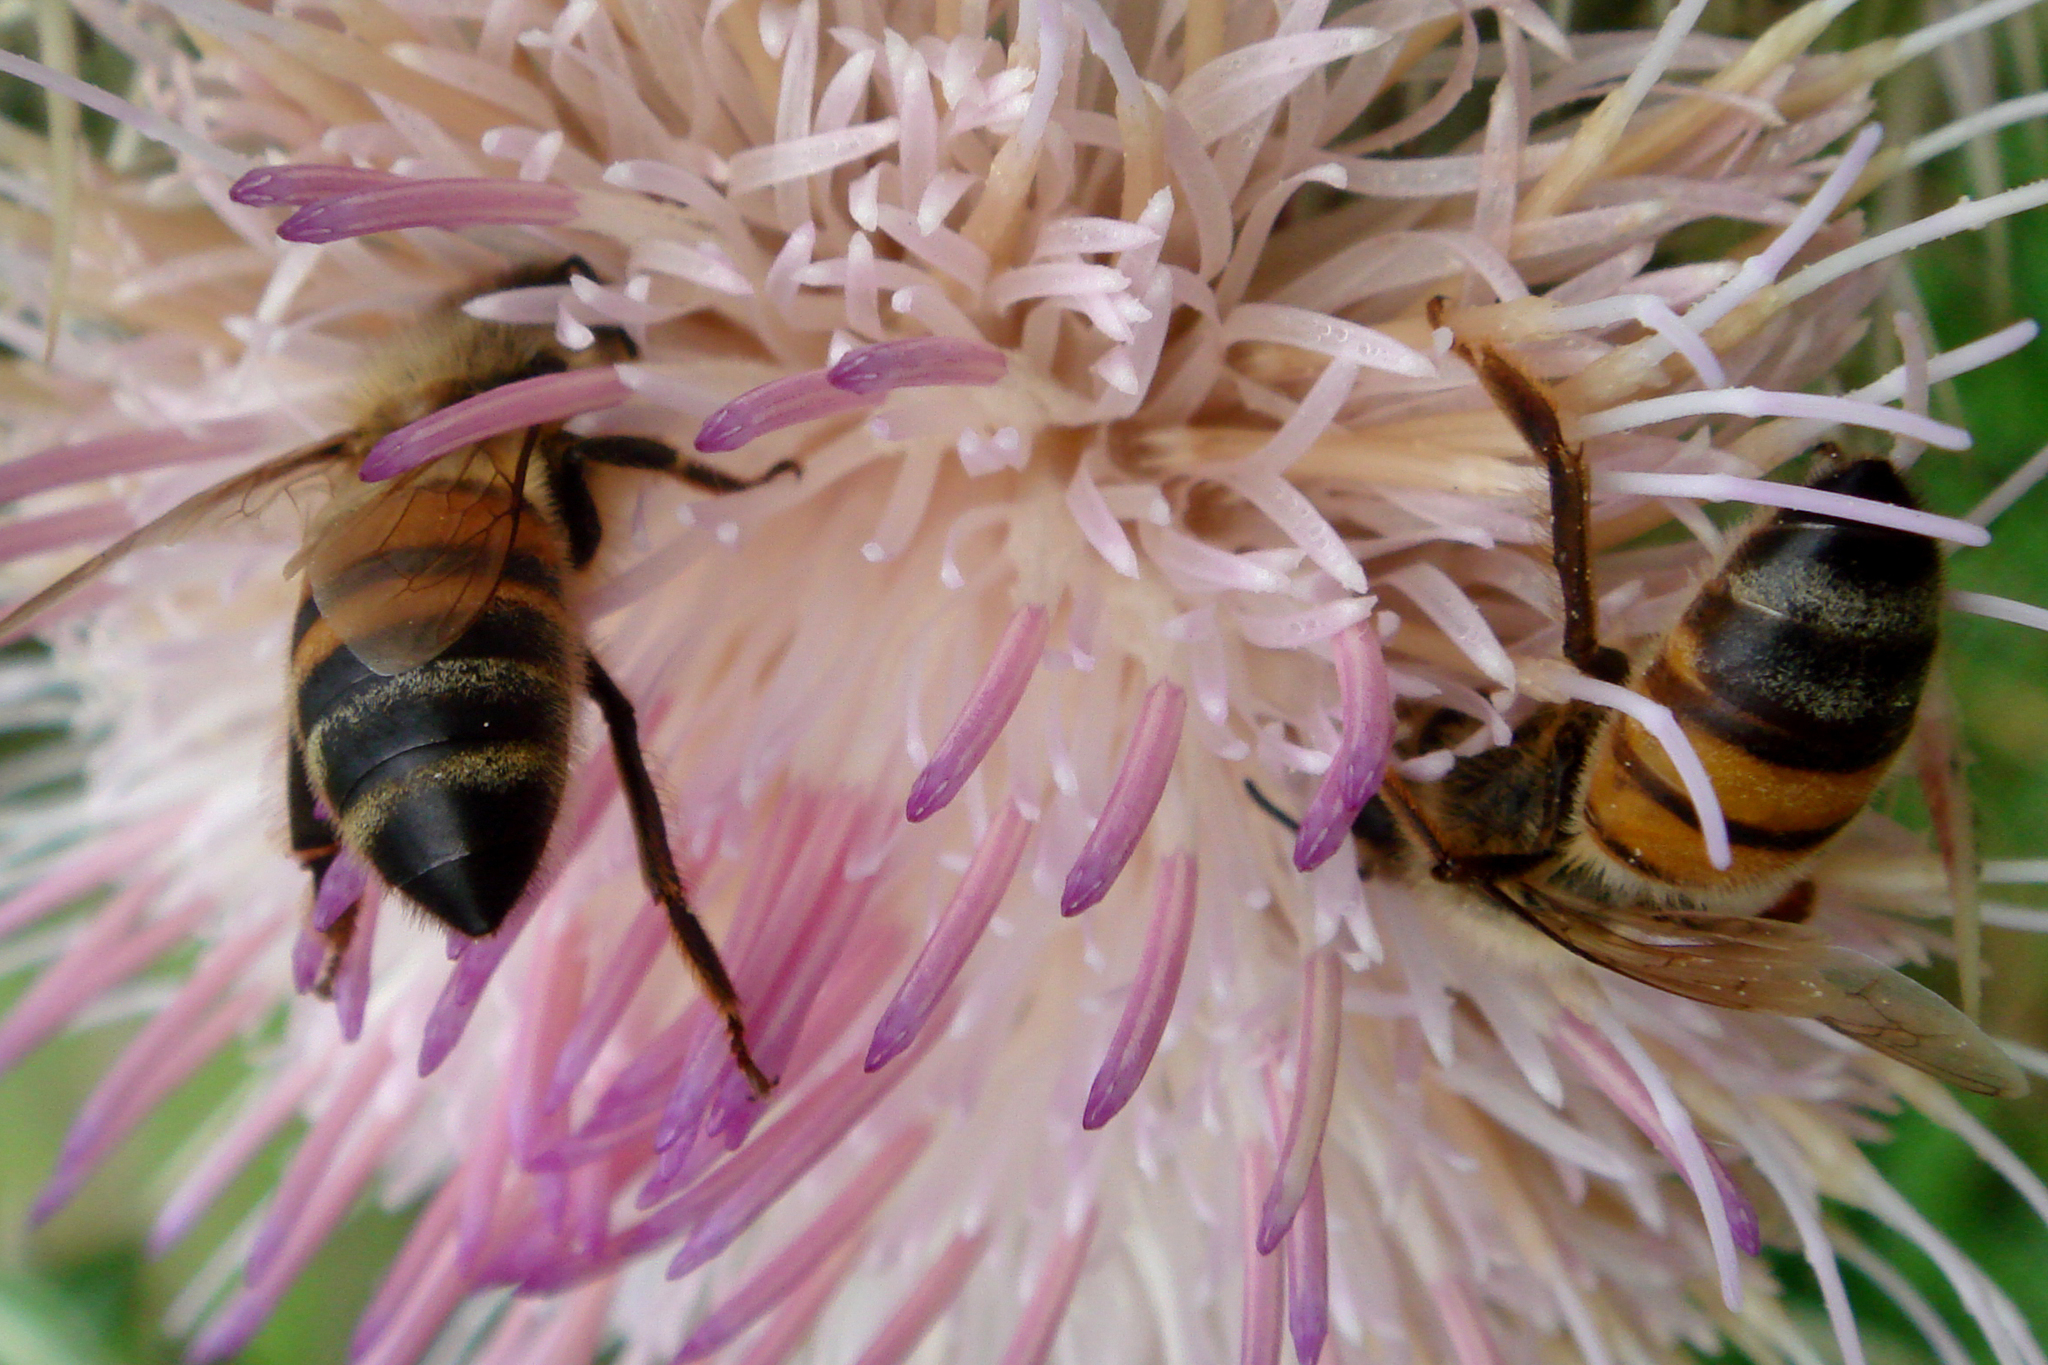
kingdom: Animalia
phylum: Arthropoda
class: Insecta
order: Hymenoptera
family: Apidae
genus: Apis
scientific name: Apis mellifera
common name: Honey bee
